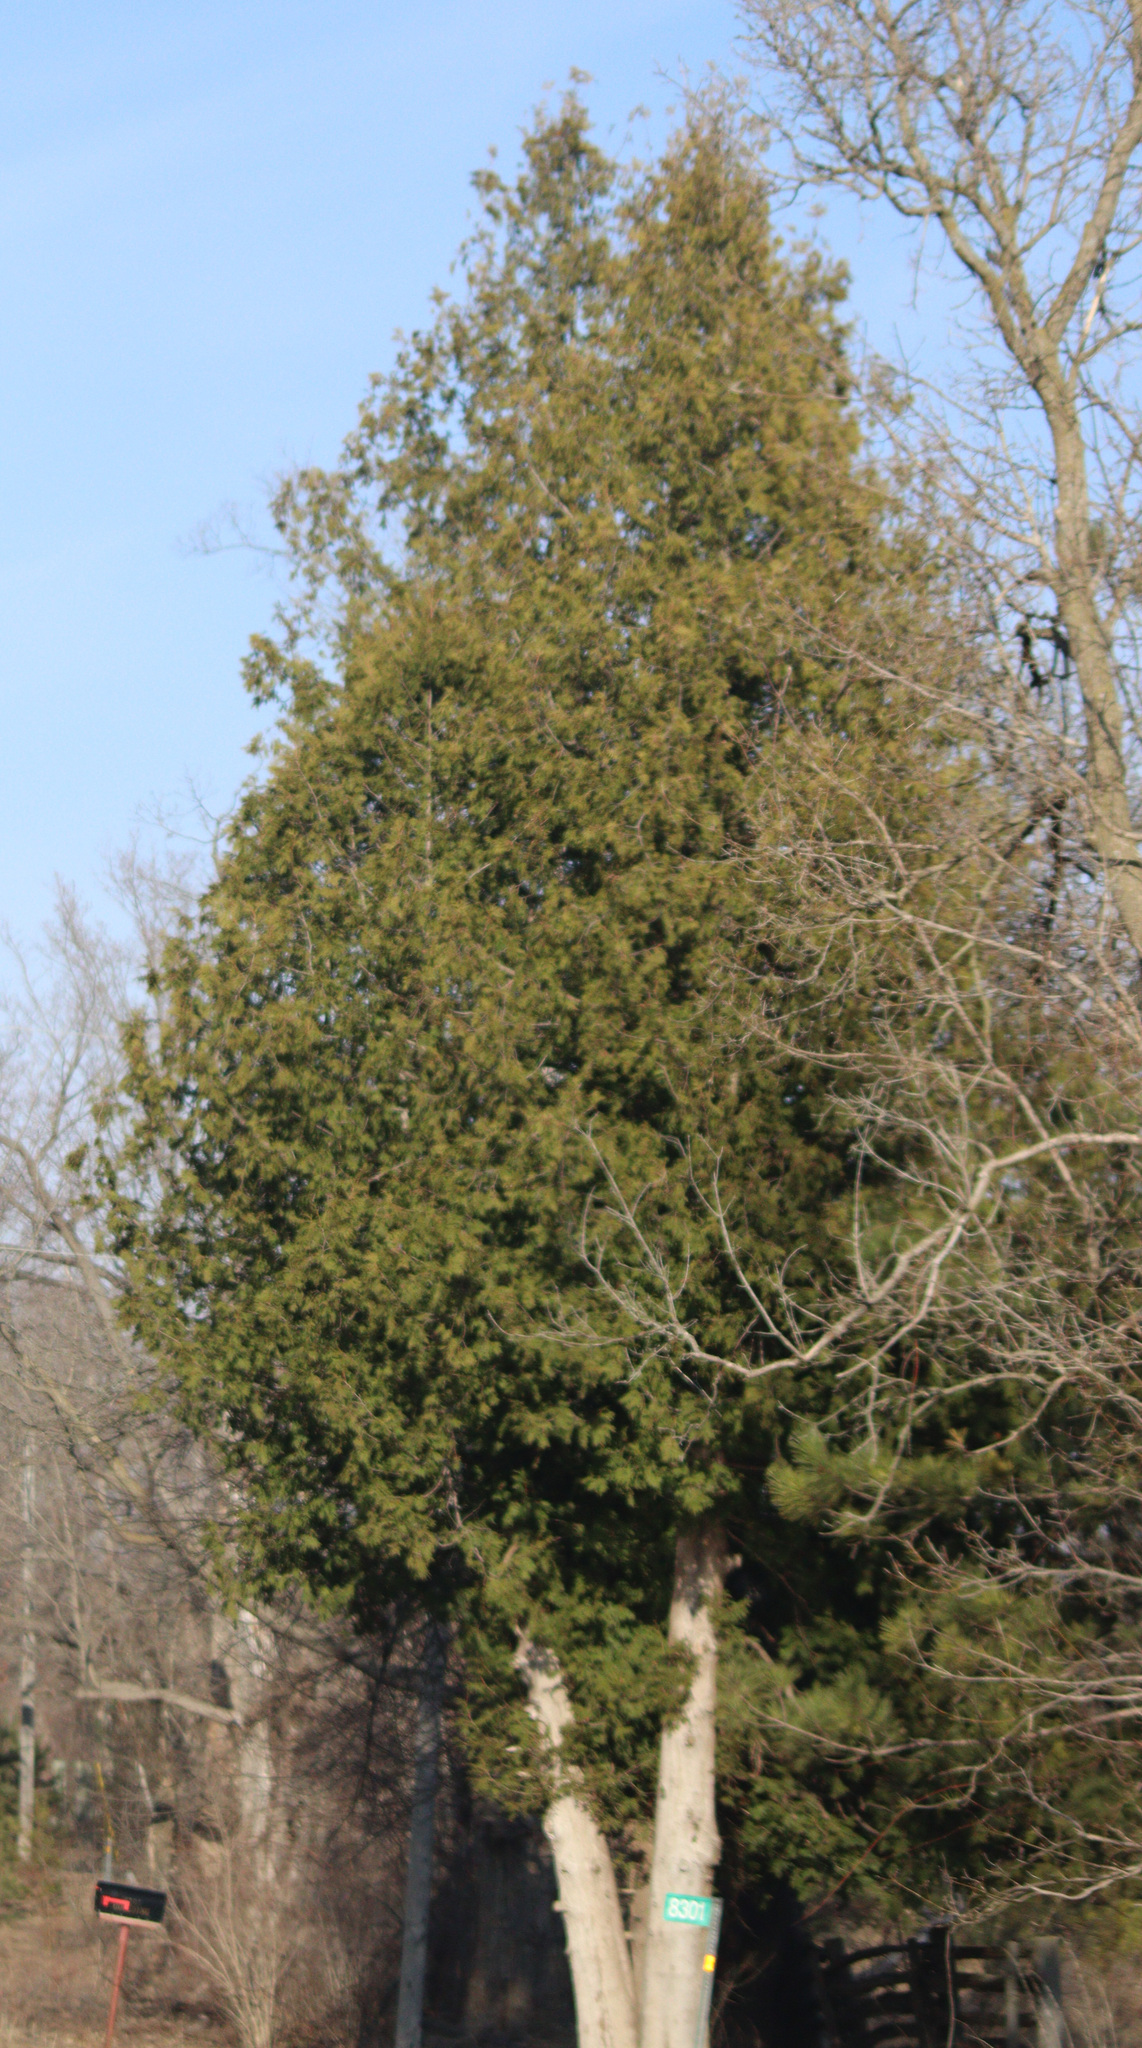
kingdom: Plantae
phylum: Tracheophyta
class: Pinopsida
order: Pinales
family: Cupressaceae
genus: Thuja
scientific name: Thuja occidentalis
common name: Northern white-cedar
